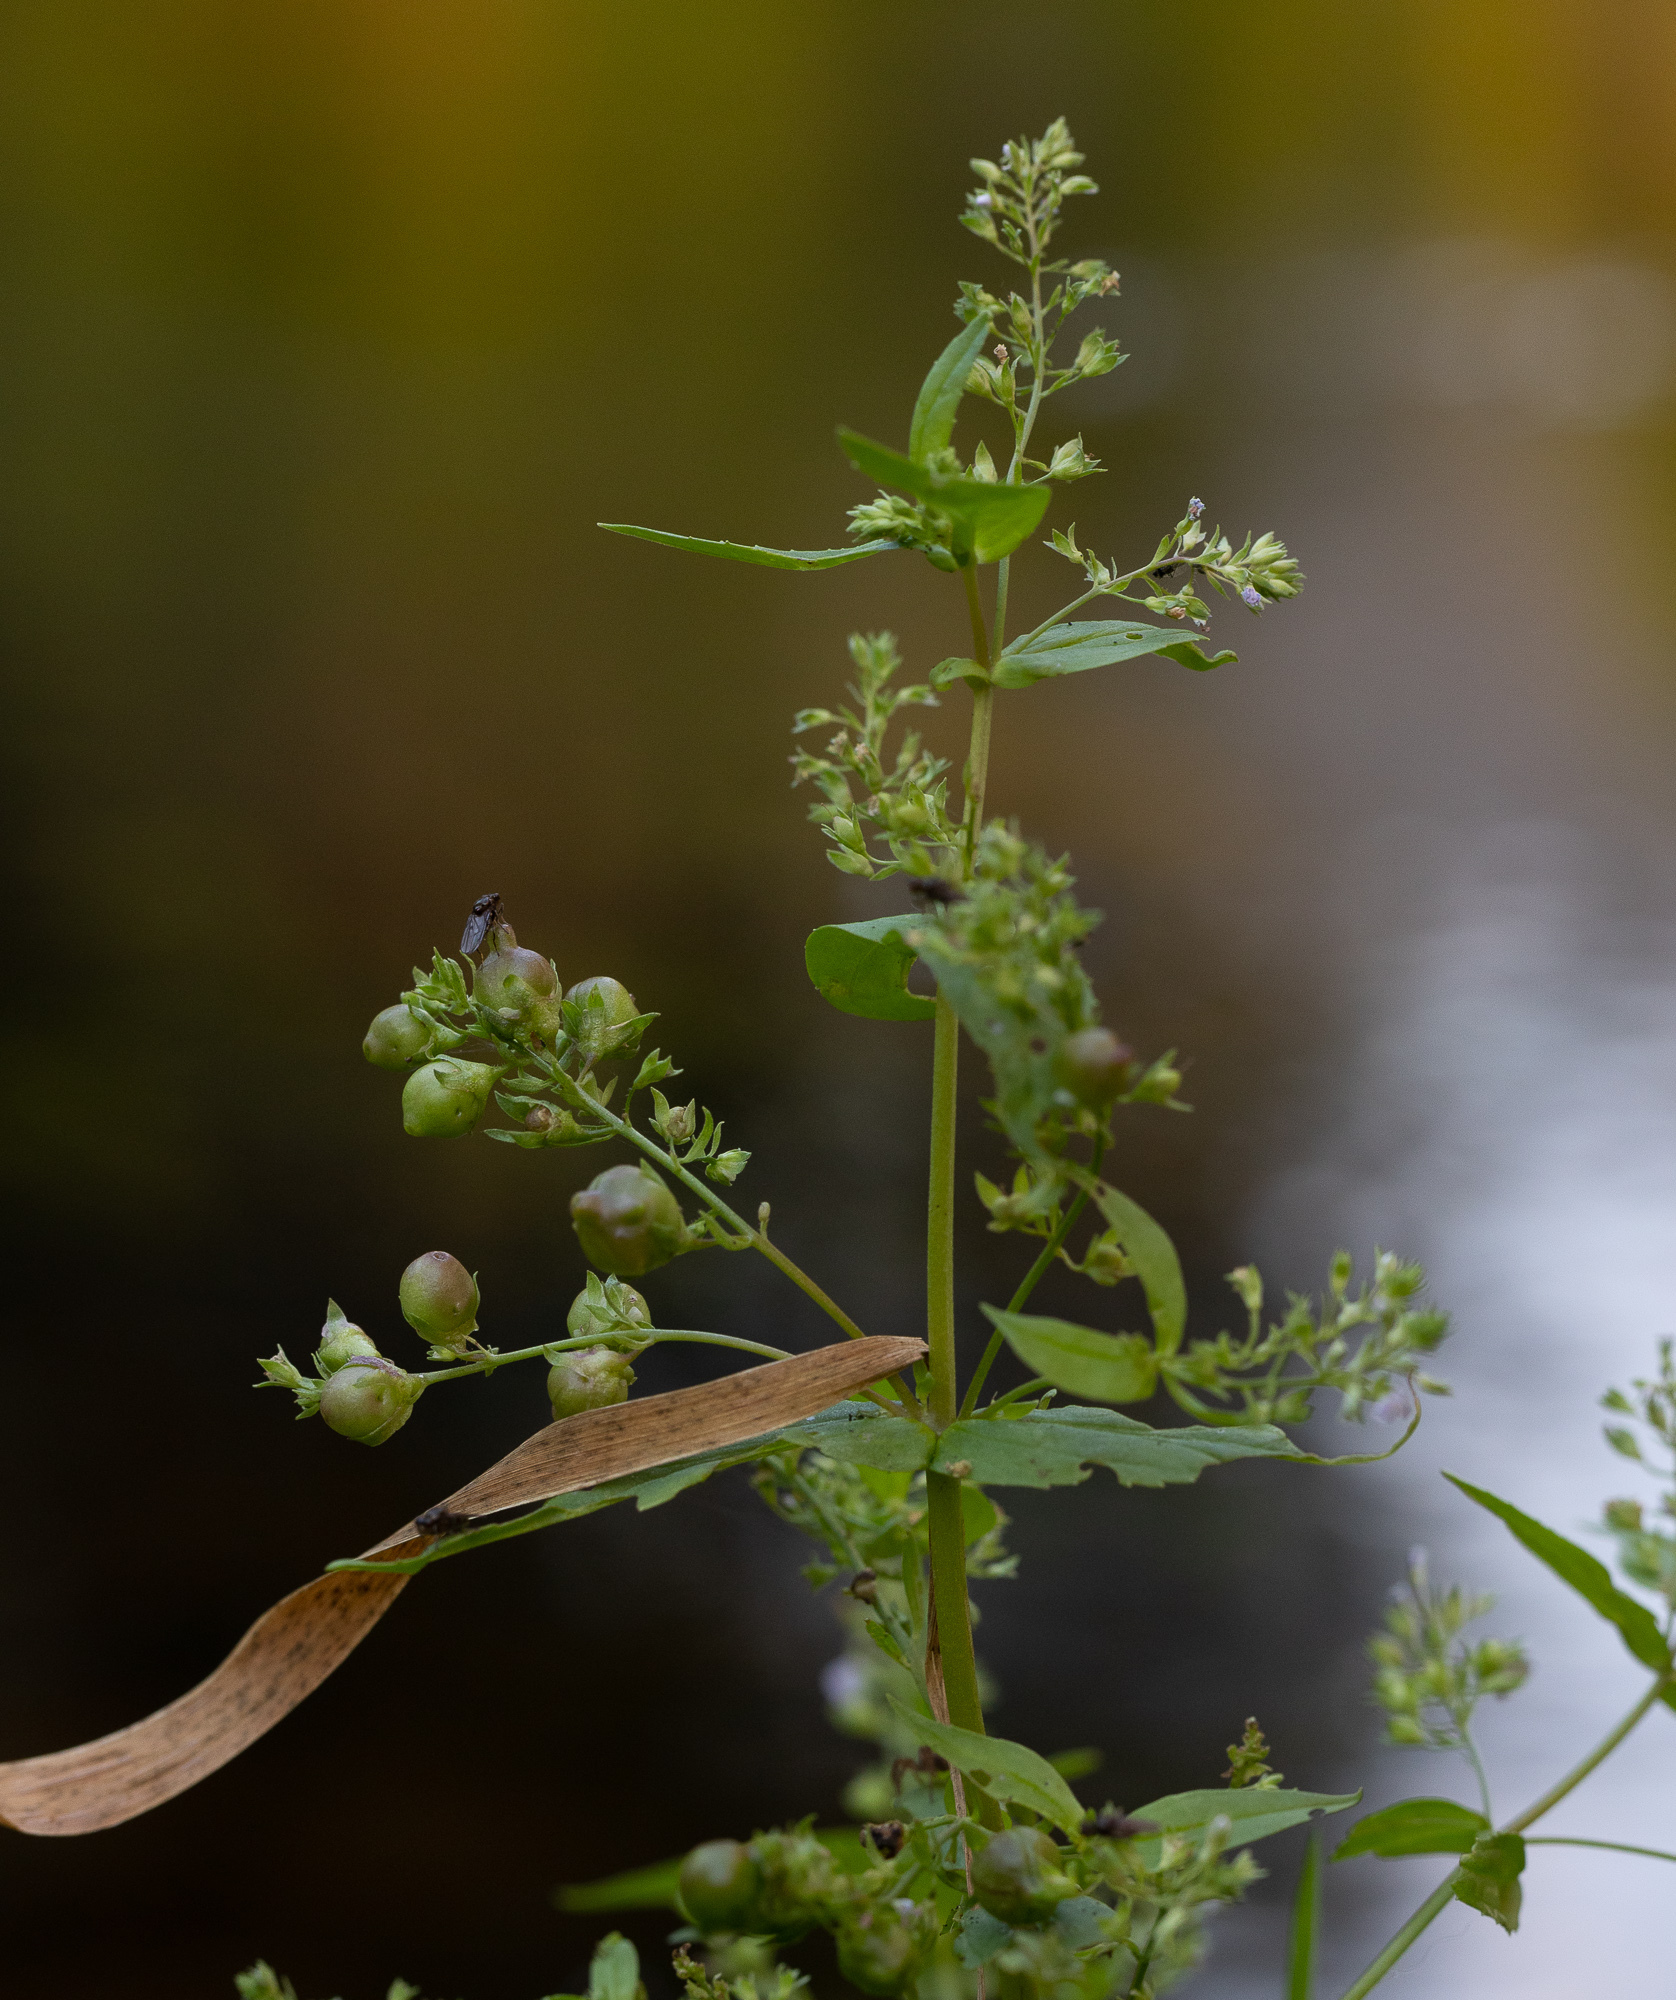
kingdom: Plantae
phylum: Tracheophyta
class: Magnoliopsida
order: Lamiales
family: Plantaginaceae
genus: Veronica
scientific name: Veronica anagallis-aquatica
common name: Water speedwell
